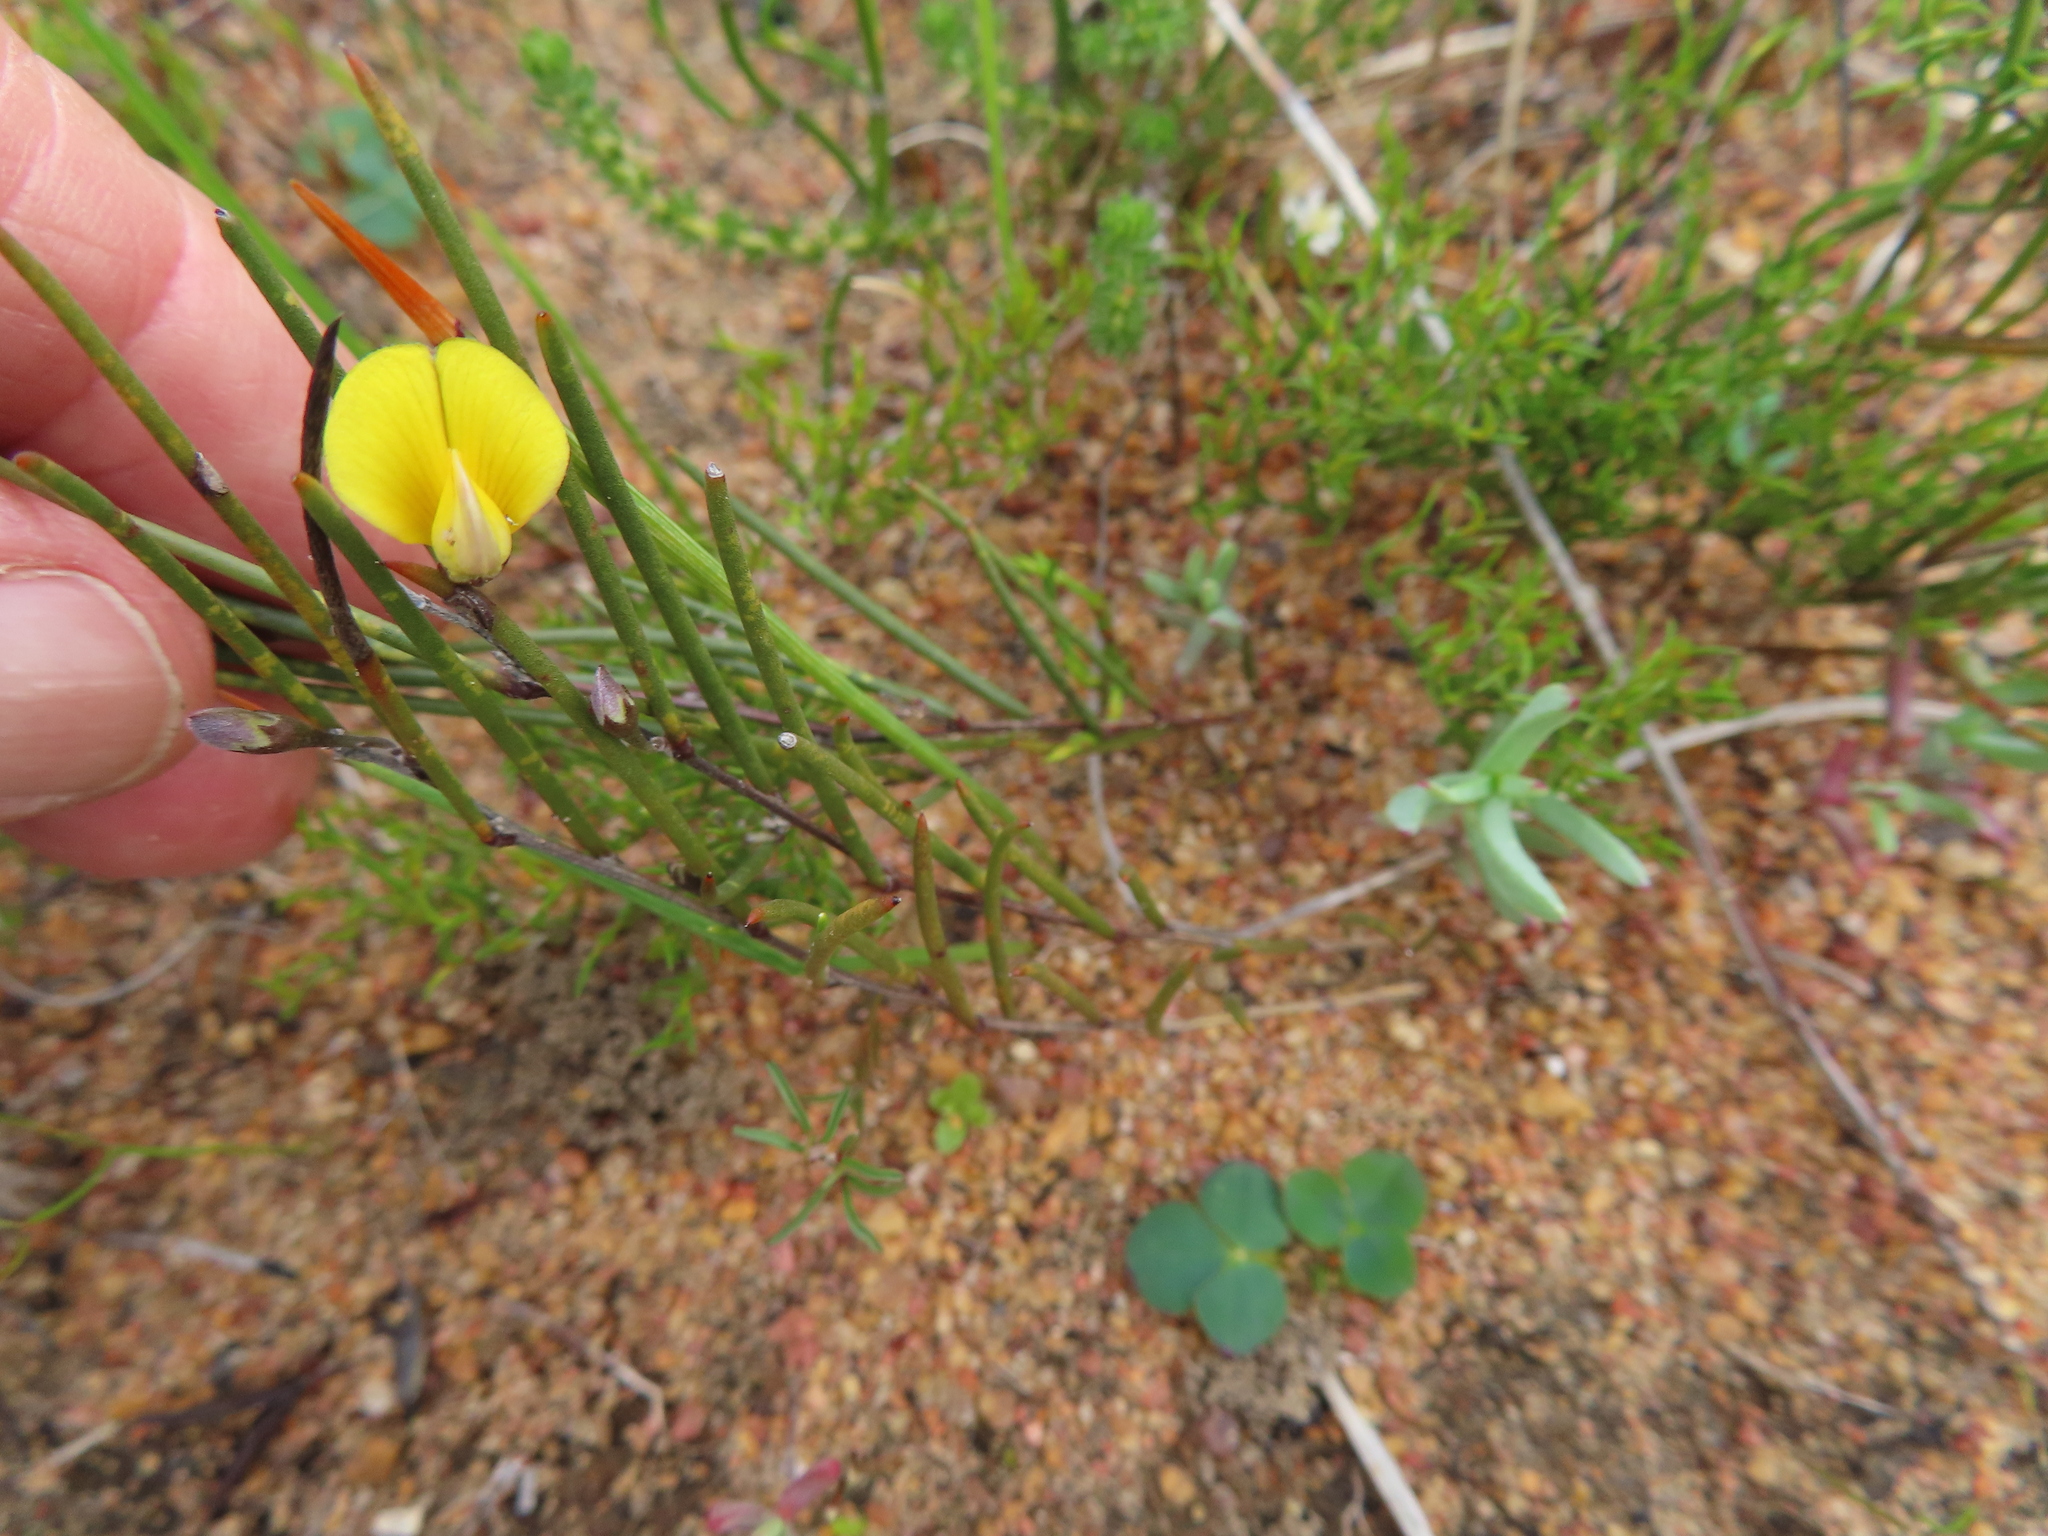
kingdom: Plantae
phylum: Tracheophyta
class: Magnoliopsida
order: Fabales
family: Fabaceae
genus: Aspalathus
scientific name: Aspalathus linearis
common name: Rooibos-tea
